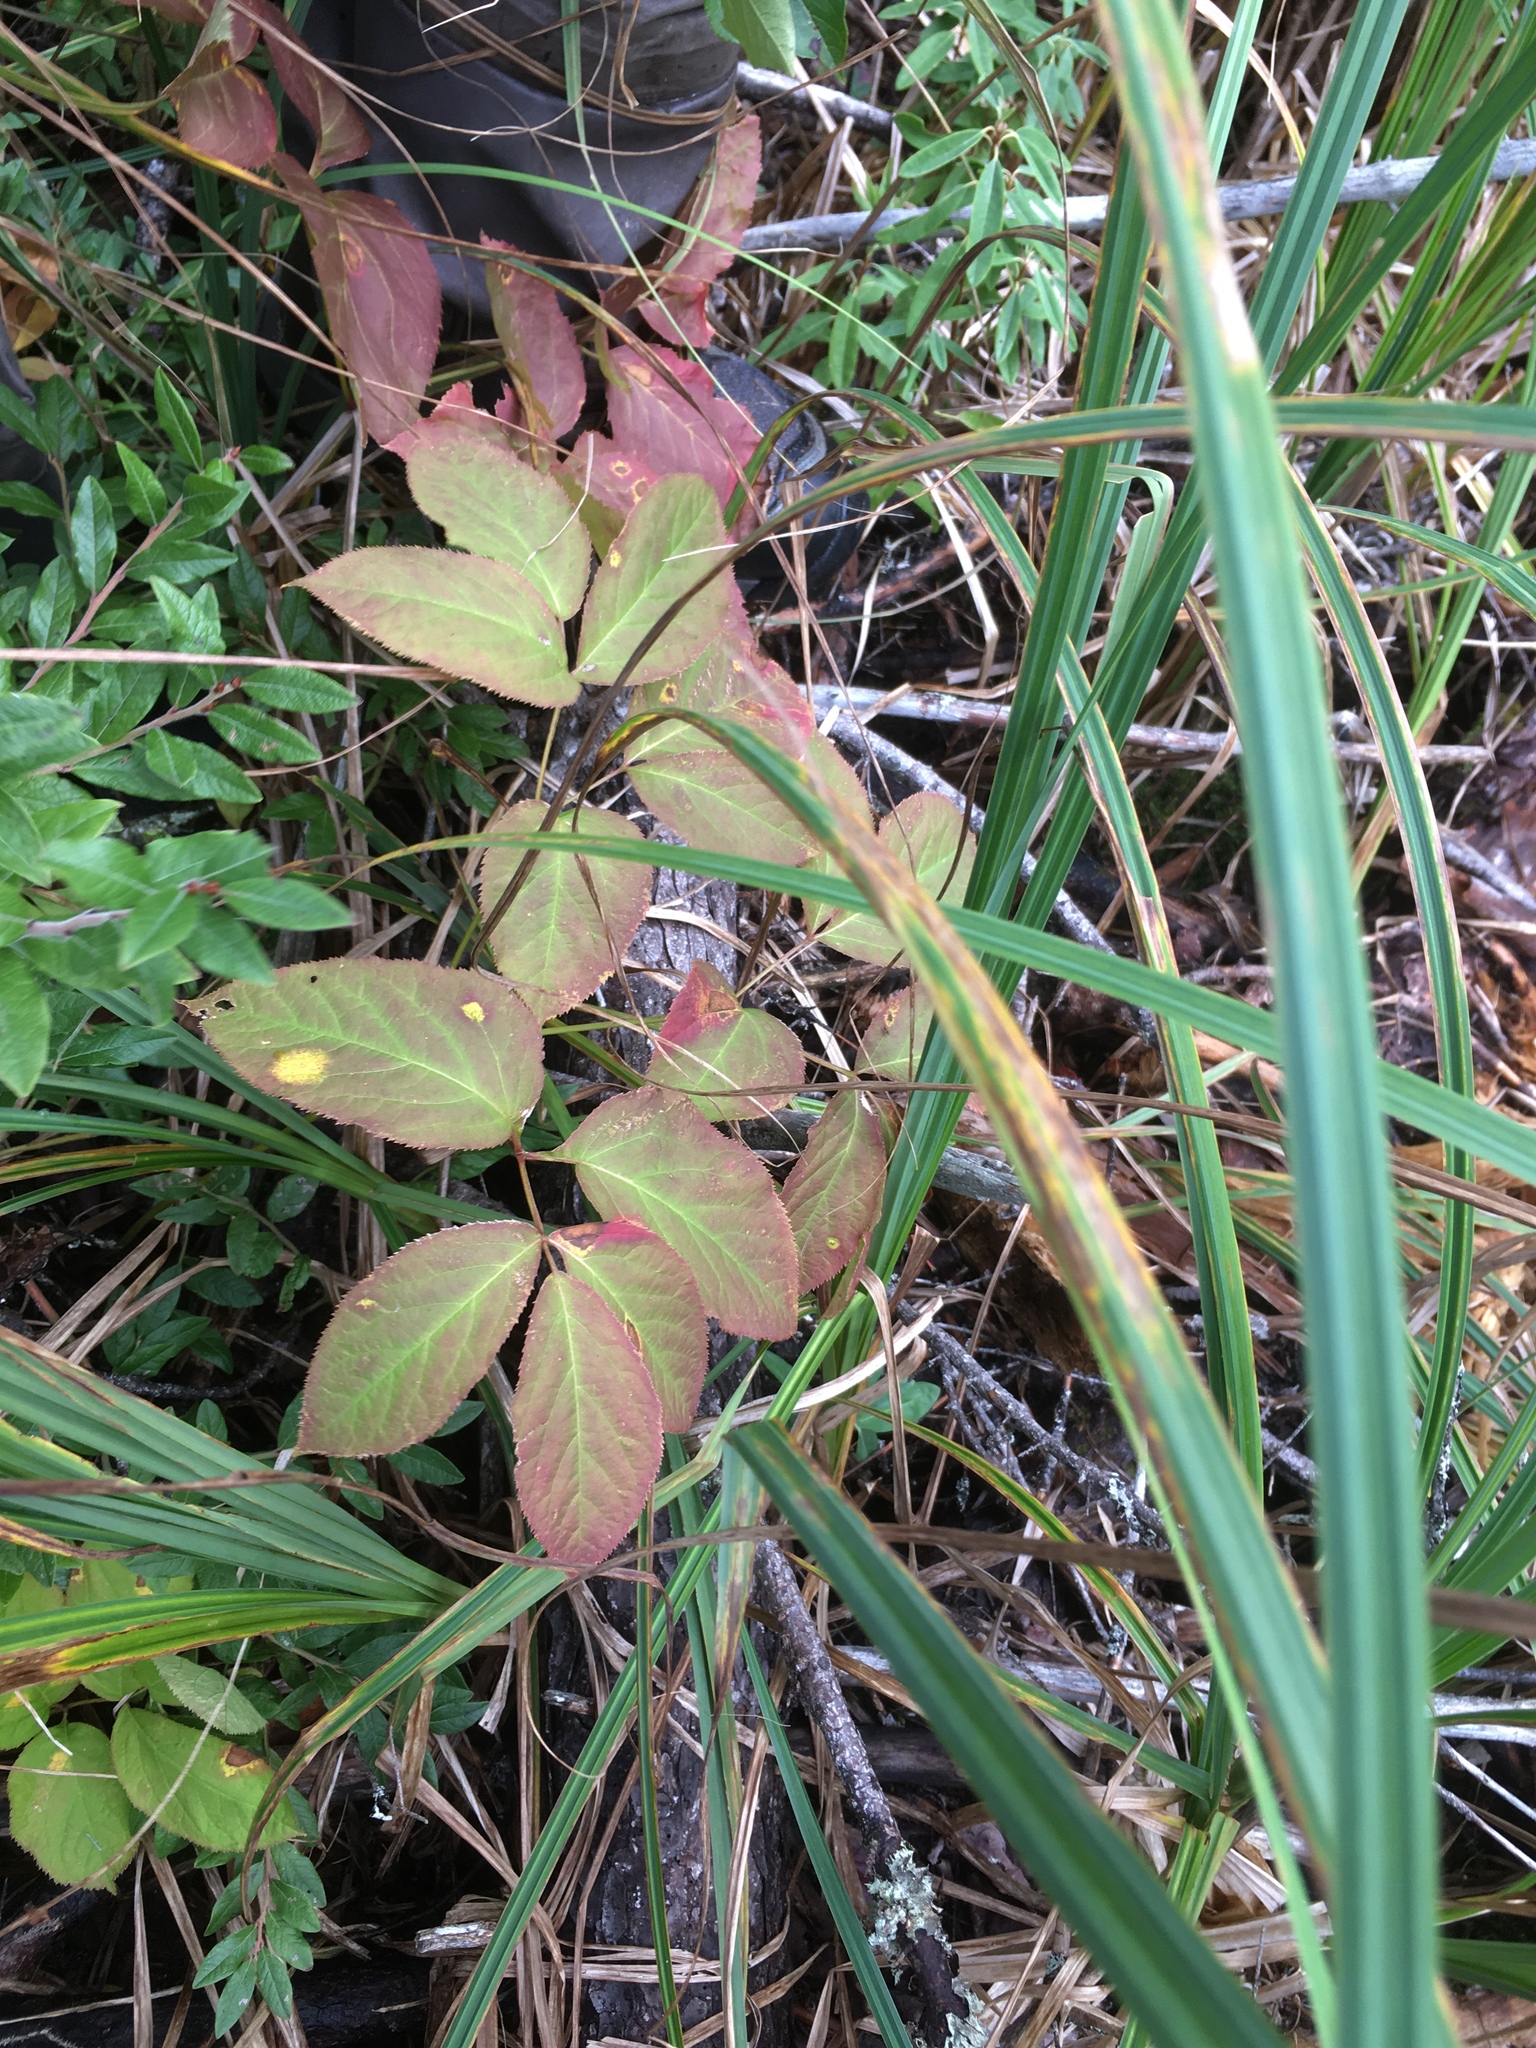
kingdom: Plantae
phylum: Tracheophyta
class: Magnoliopsida
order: Apiales
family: Araliaceae
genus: Aralia
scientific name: Aralia nudicaulis
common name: Wild sarsaparilla
